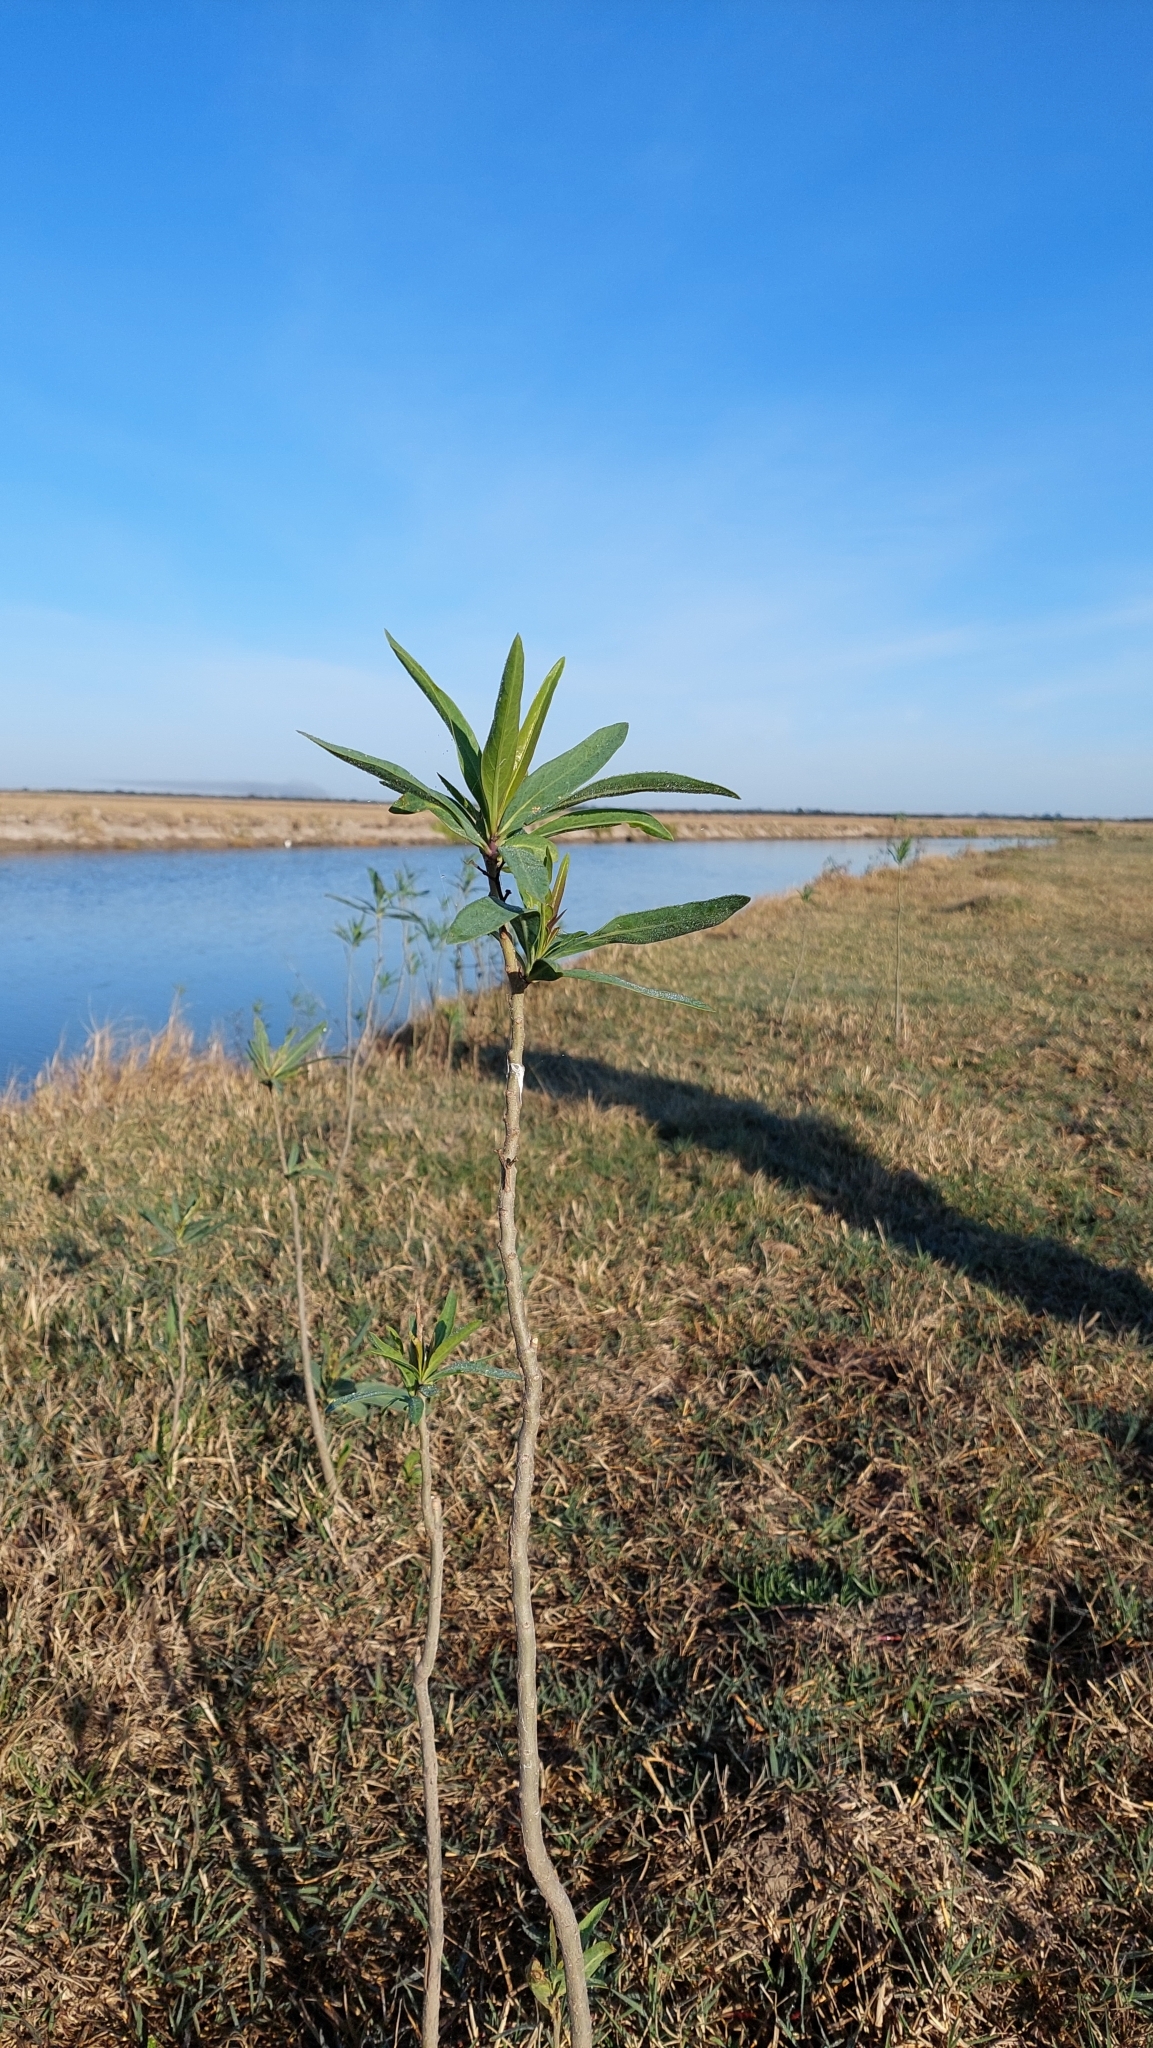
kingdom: Plantae
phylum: Tracheophyta
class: Magnoliopsida
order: Solanales
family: Solanaceae
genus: Solanum
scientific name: Solanum glaucophyllum
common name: Waxyleaf nightshade
